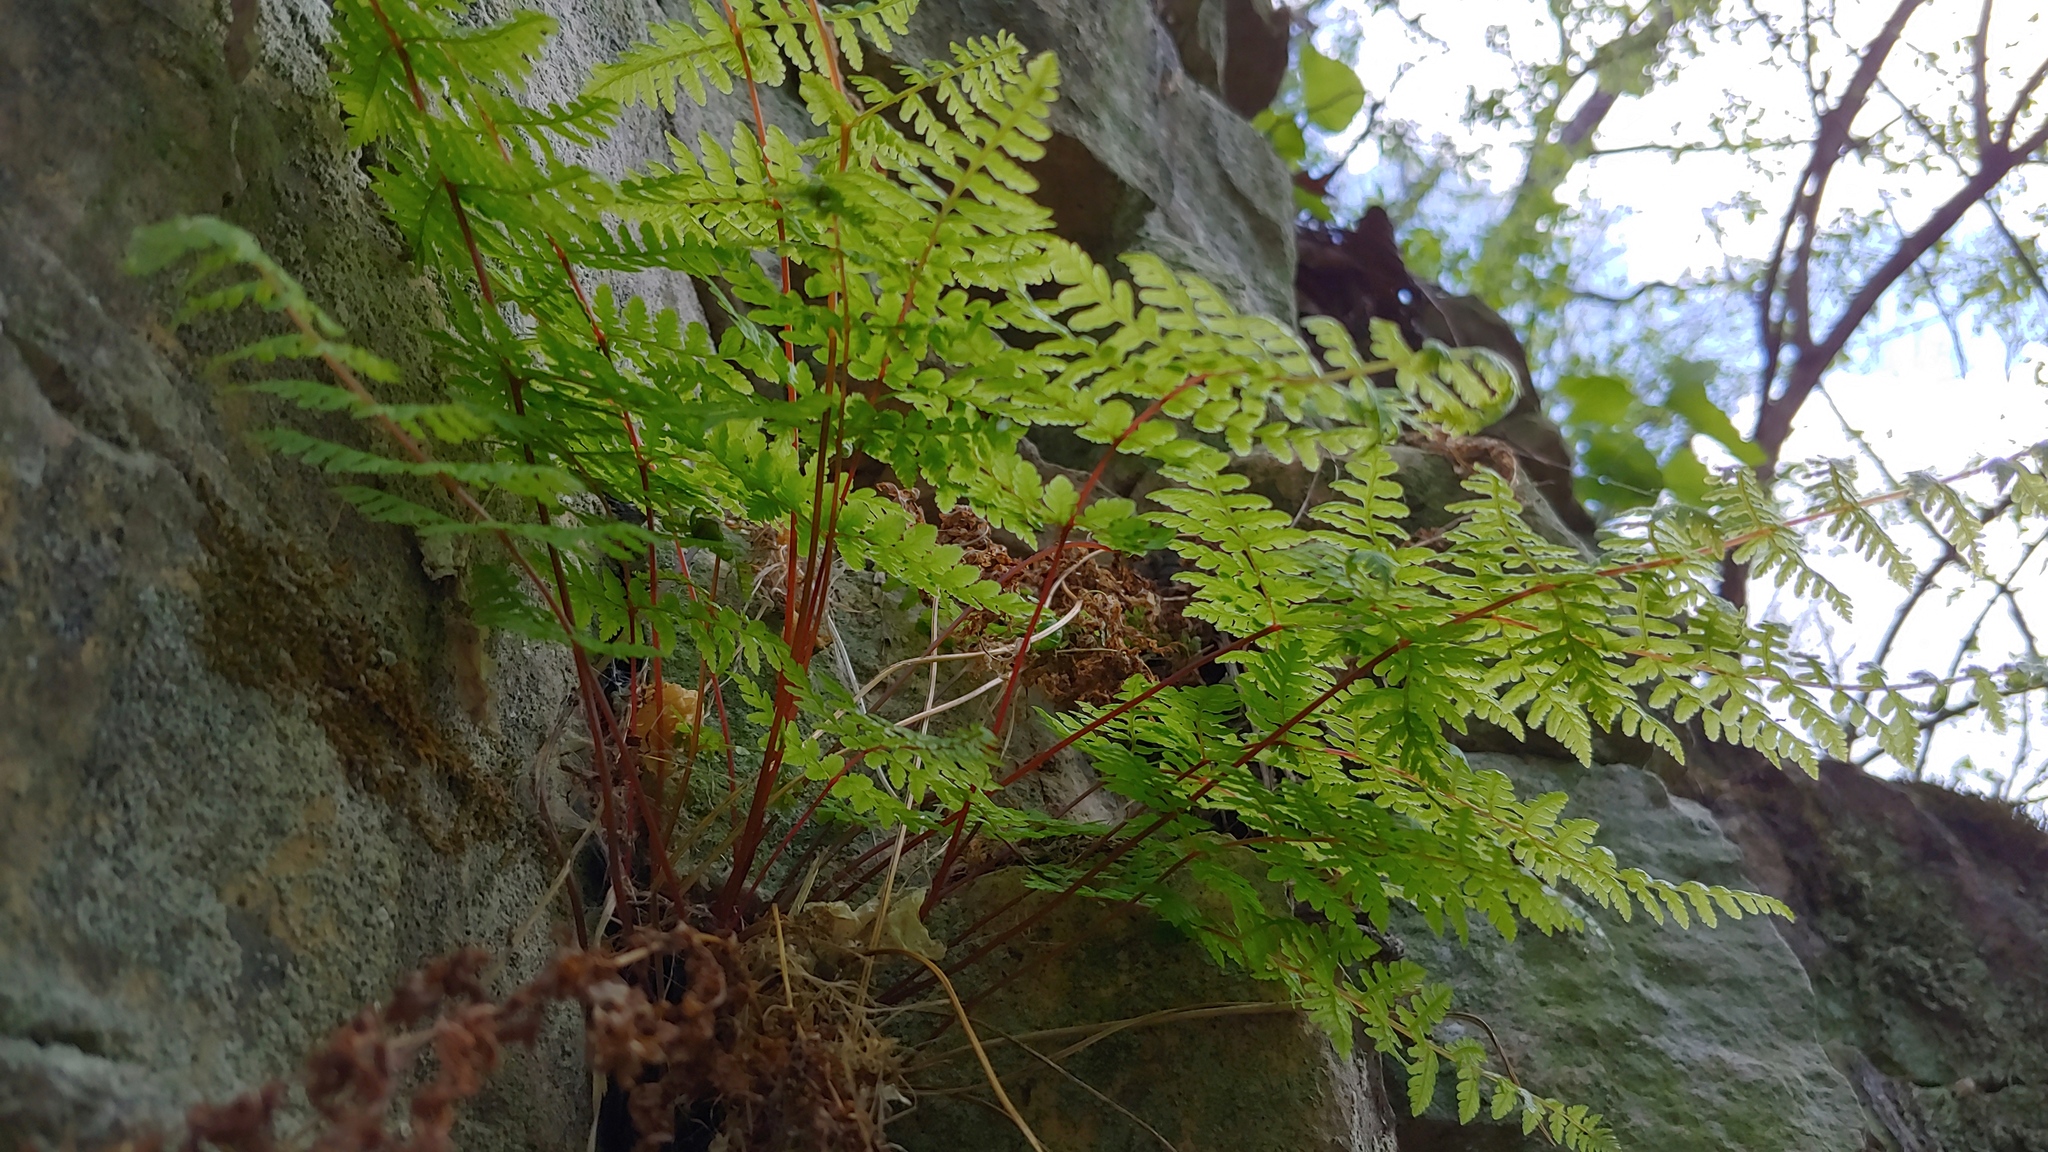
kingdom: Plantae
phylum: Tracheophyta
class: Polypodiopsida
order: Polypodiales
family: Cystopteridaceae
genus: Cystopteris
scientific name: Cystopteris bulbifera
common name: Bulblet bladder fern
